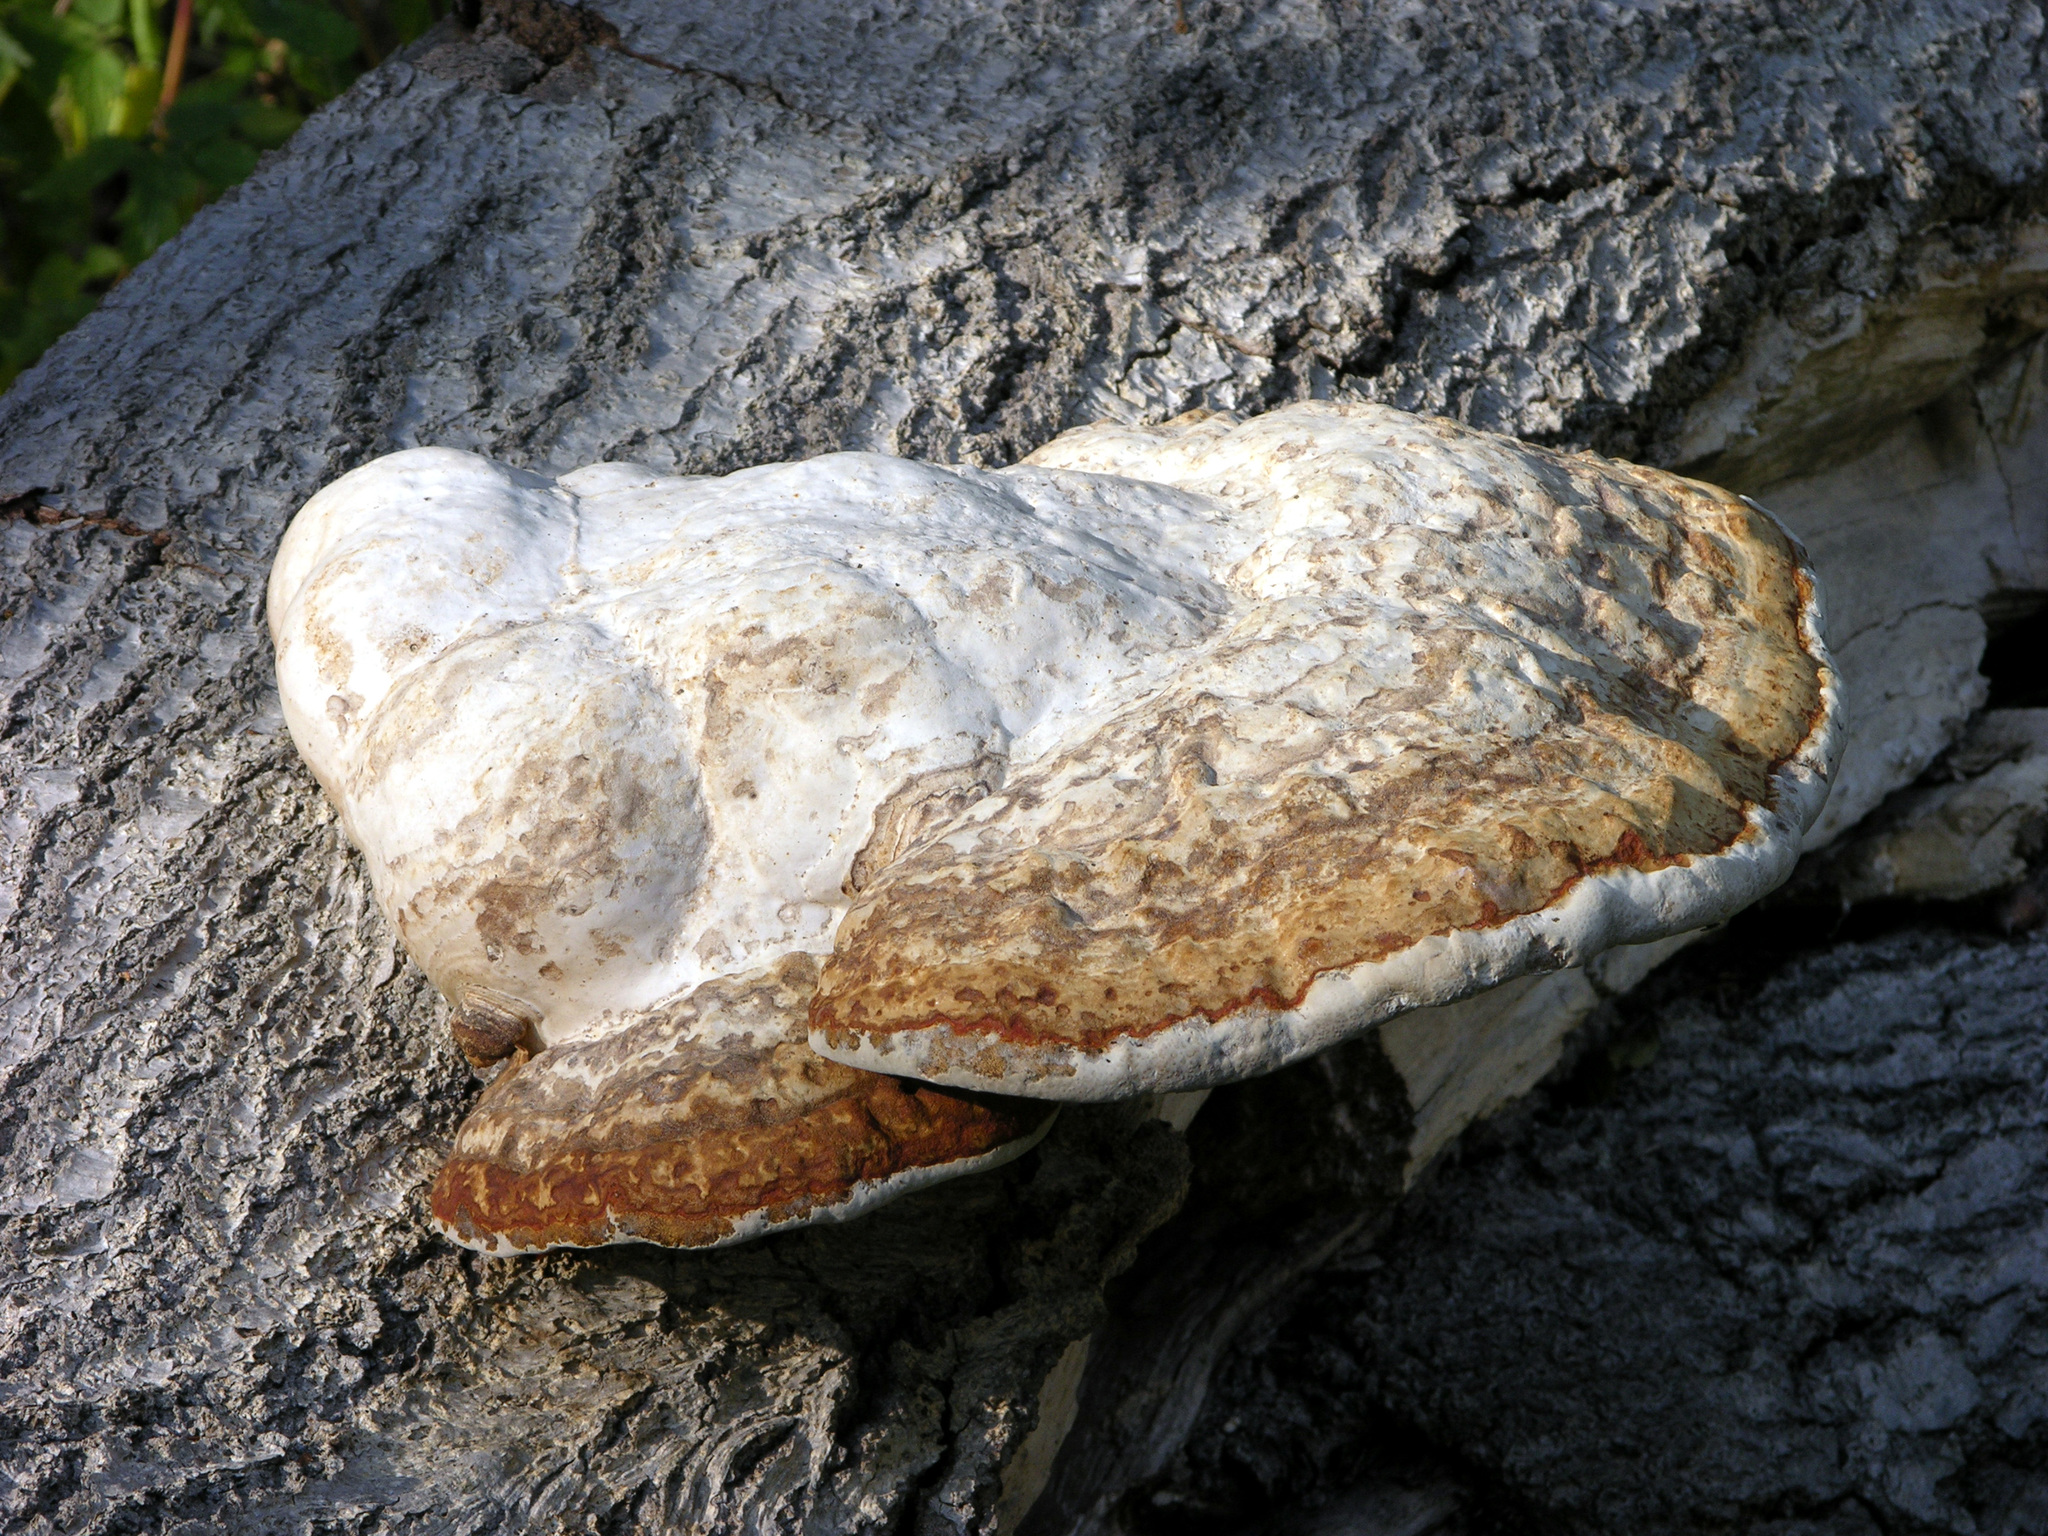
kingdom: Fungi
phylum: Basidiomycota
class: Agaricomycetes
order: Polyporales
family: Polyporaceae
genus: Fomes
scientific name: Fomes fomentarius
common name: Hoof fungus
